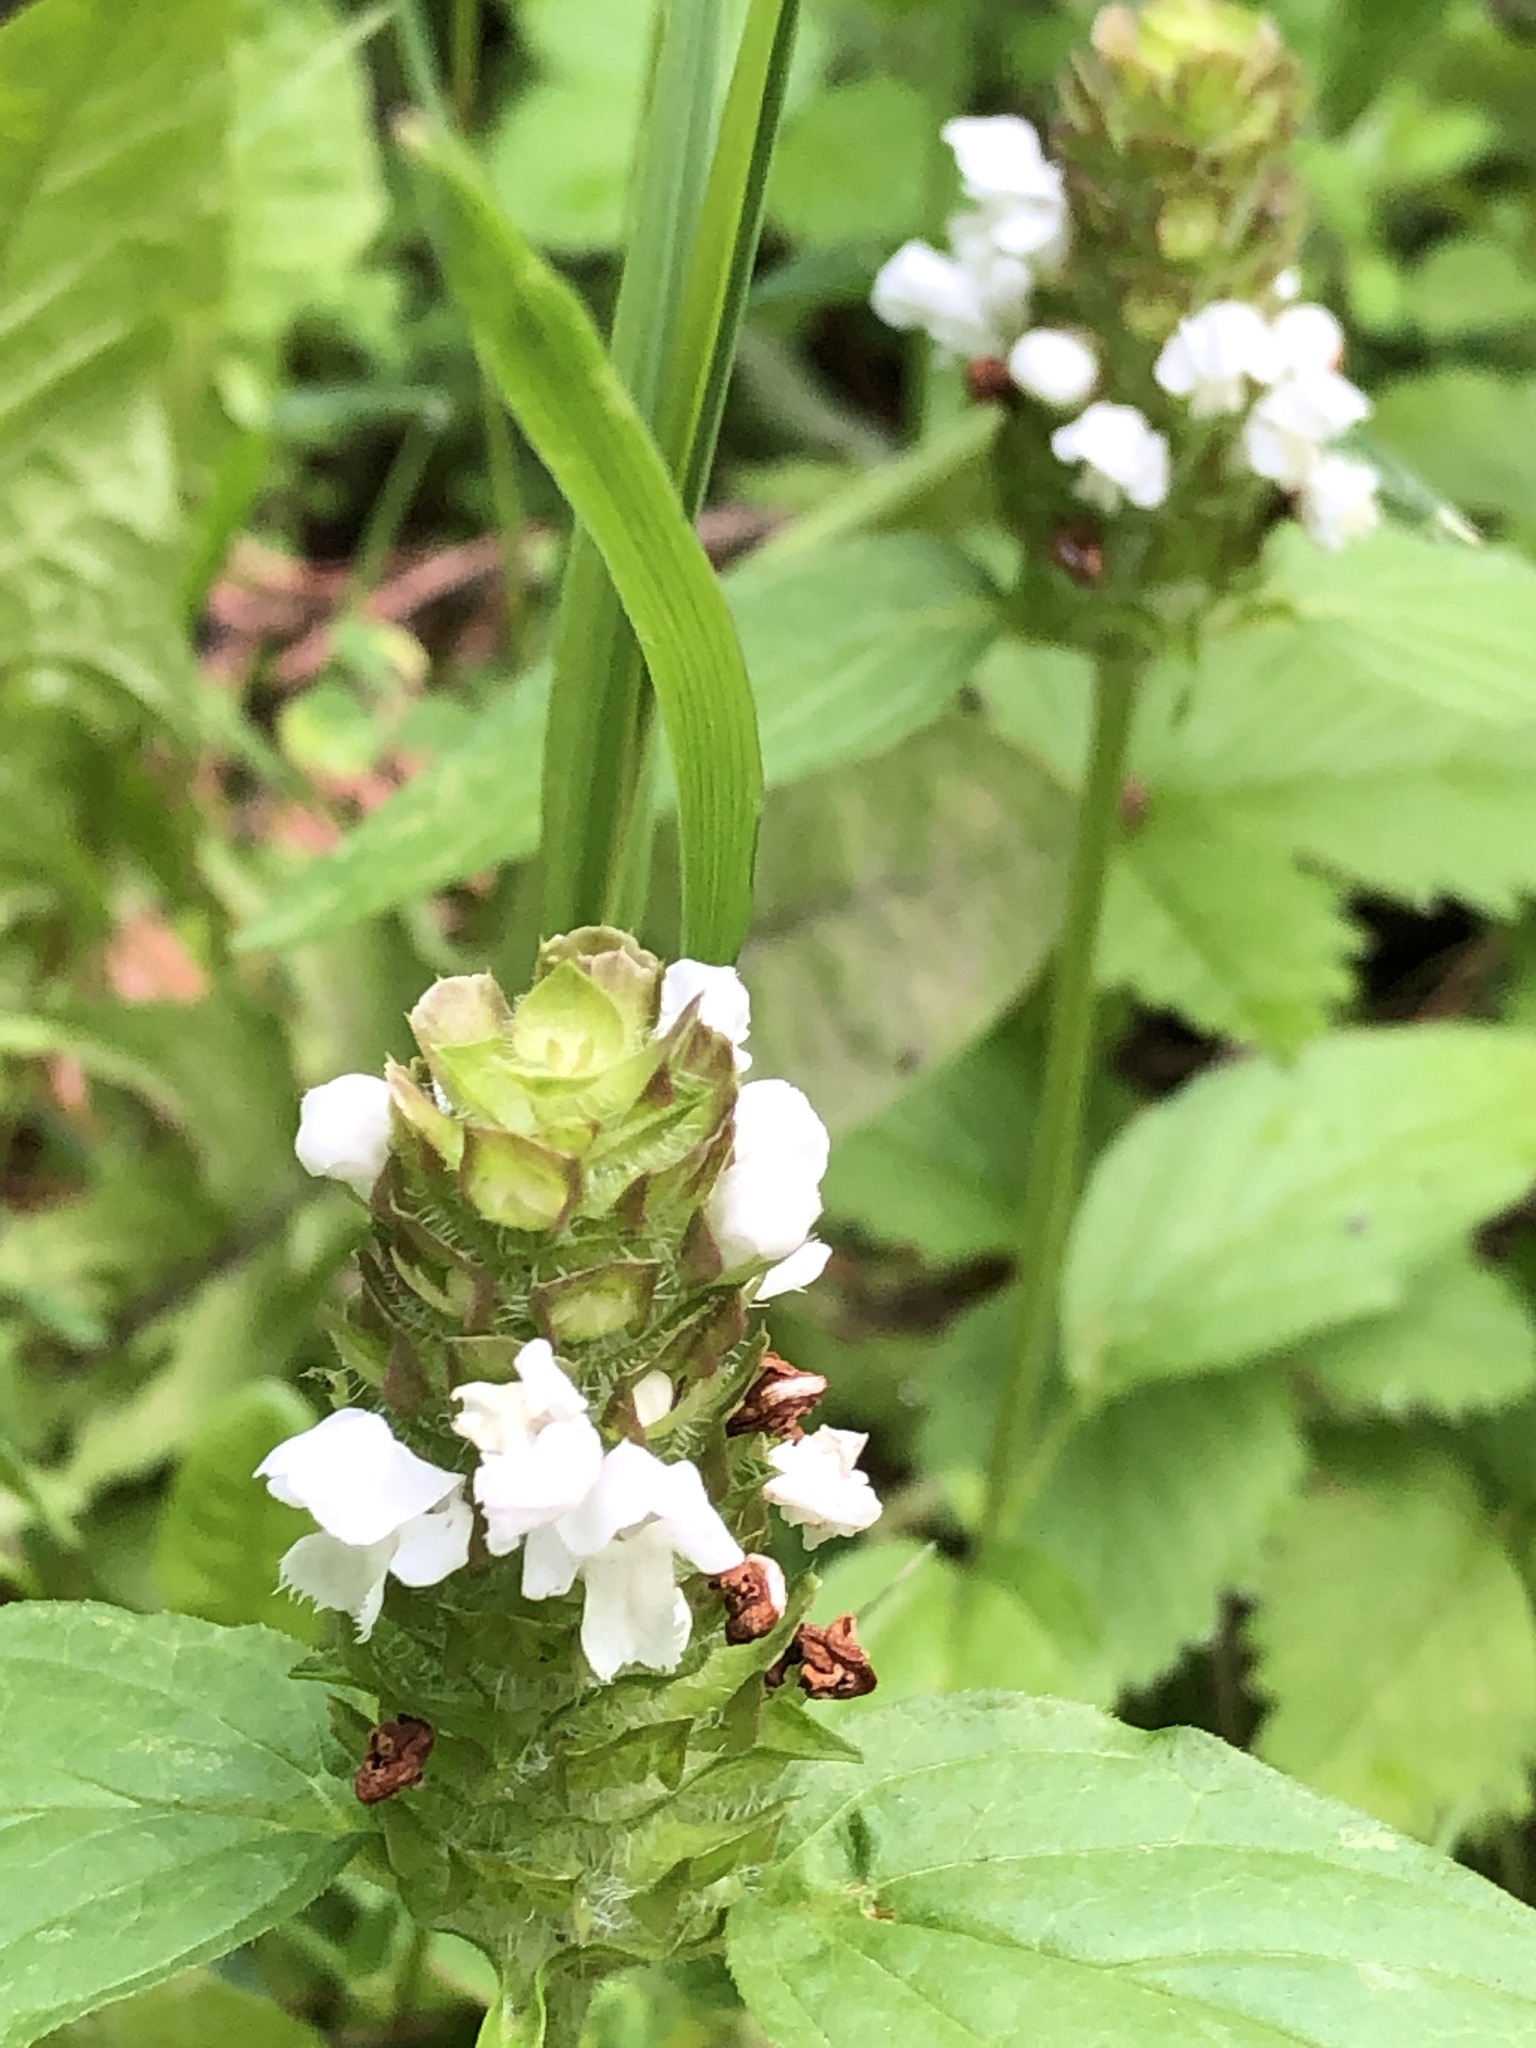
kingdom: Plantae
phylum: Tracheophyta
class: Magnoliopsida
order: Lamiales
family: Lamiaceae
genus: Prunella
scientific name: Prunella vulgaris
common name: Heal-all
